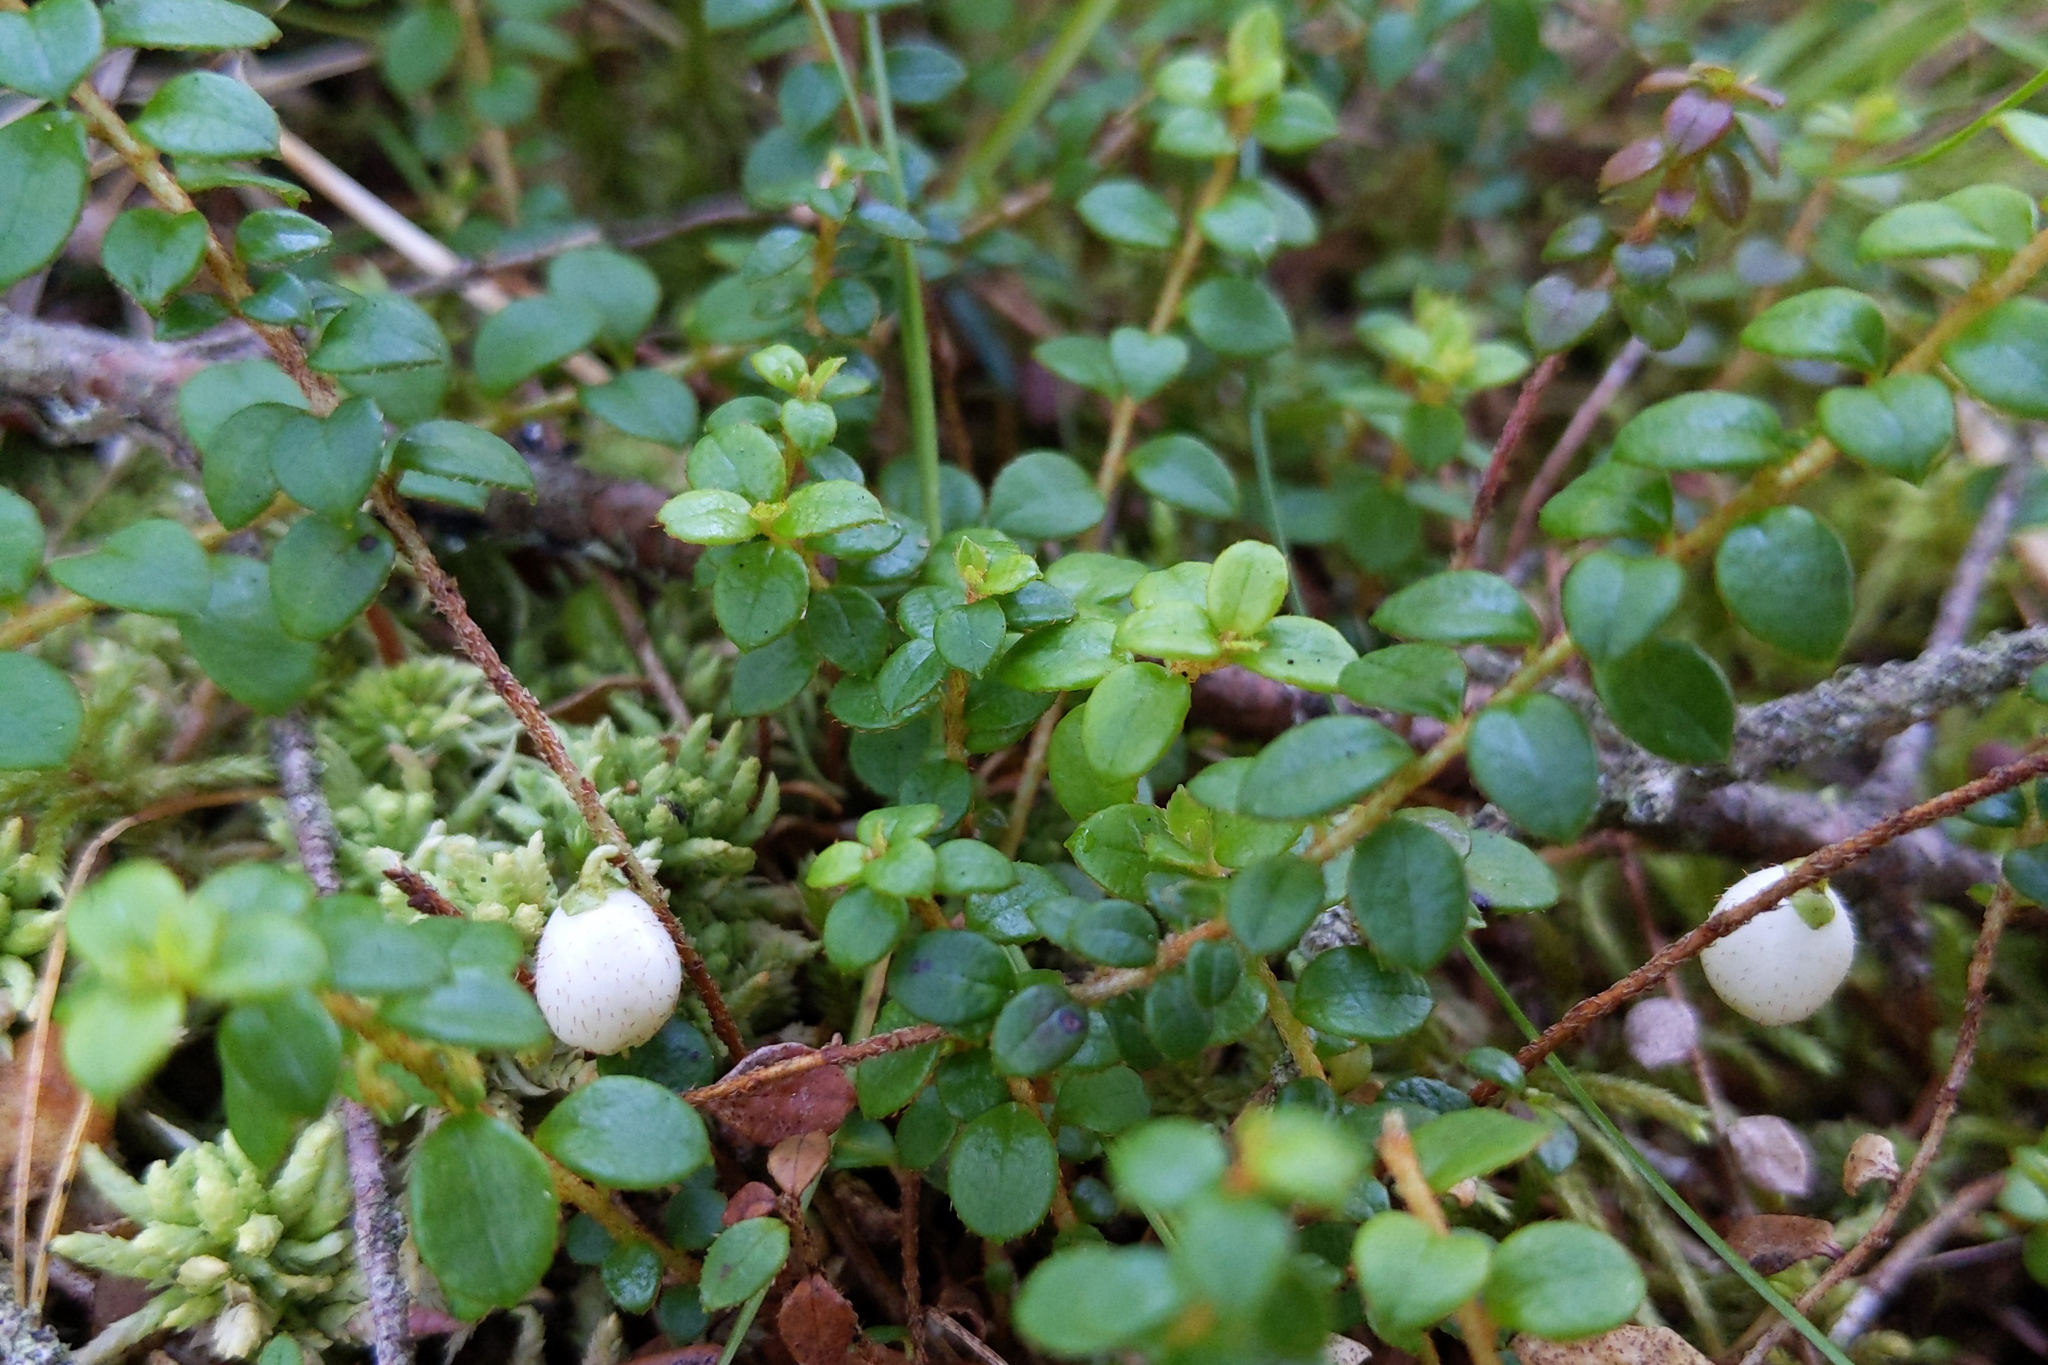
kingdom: Plantae
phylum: Tracheophyta
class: Magnoliopsida
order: Ericales
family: Ericaceae
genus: Gaultheria
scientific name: Gaultheria hispidula
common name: Cancer wintergreen
